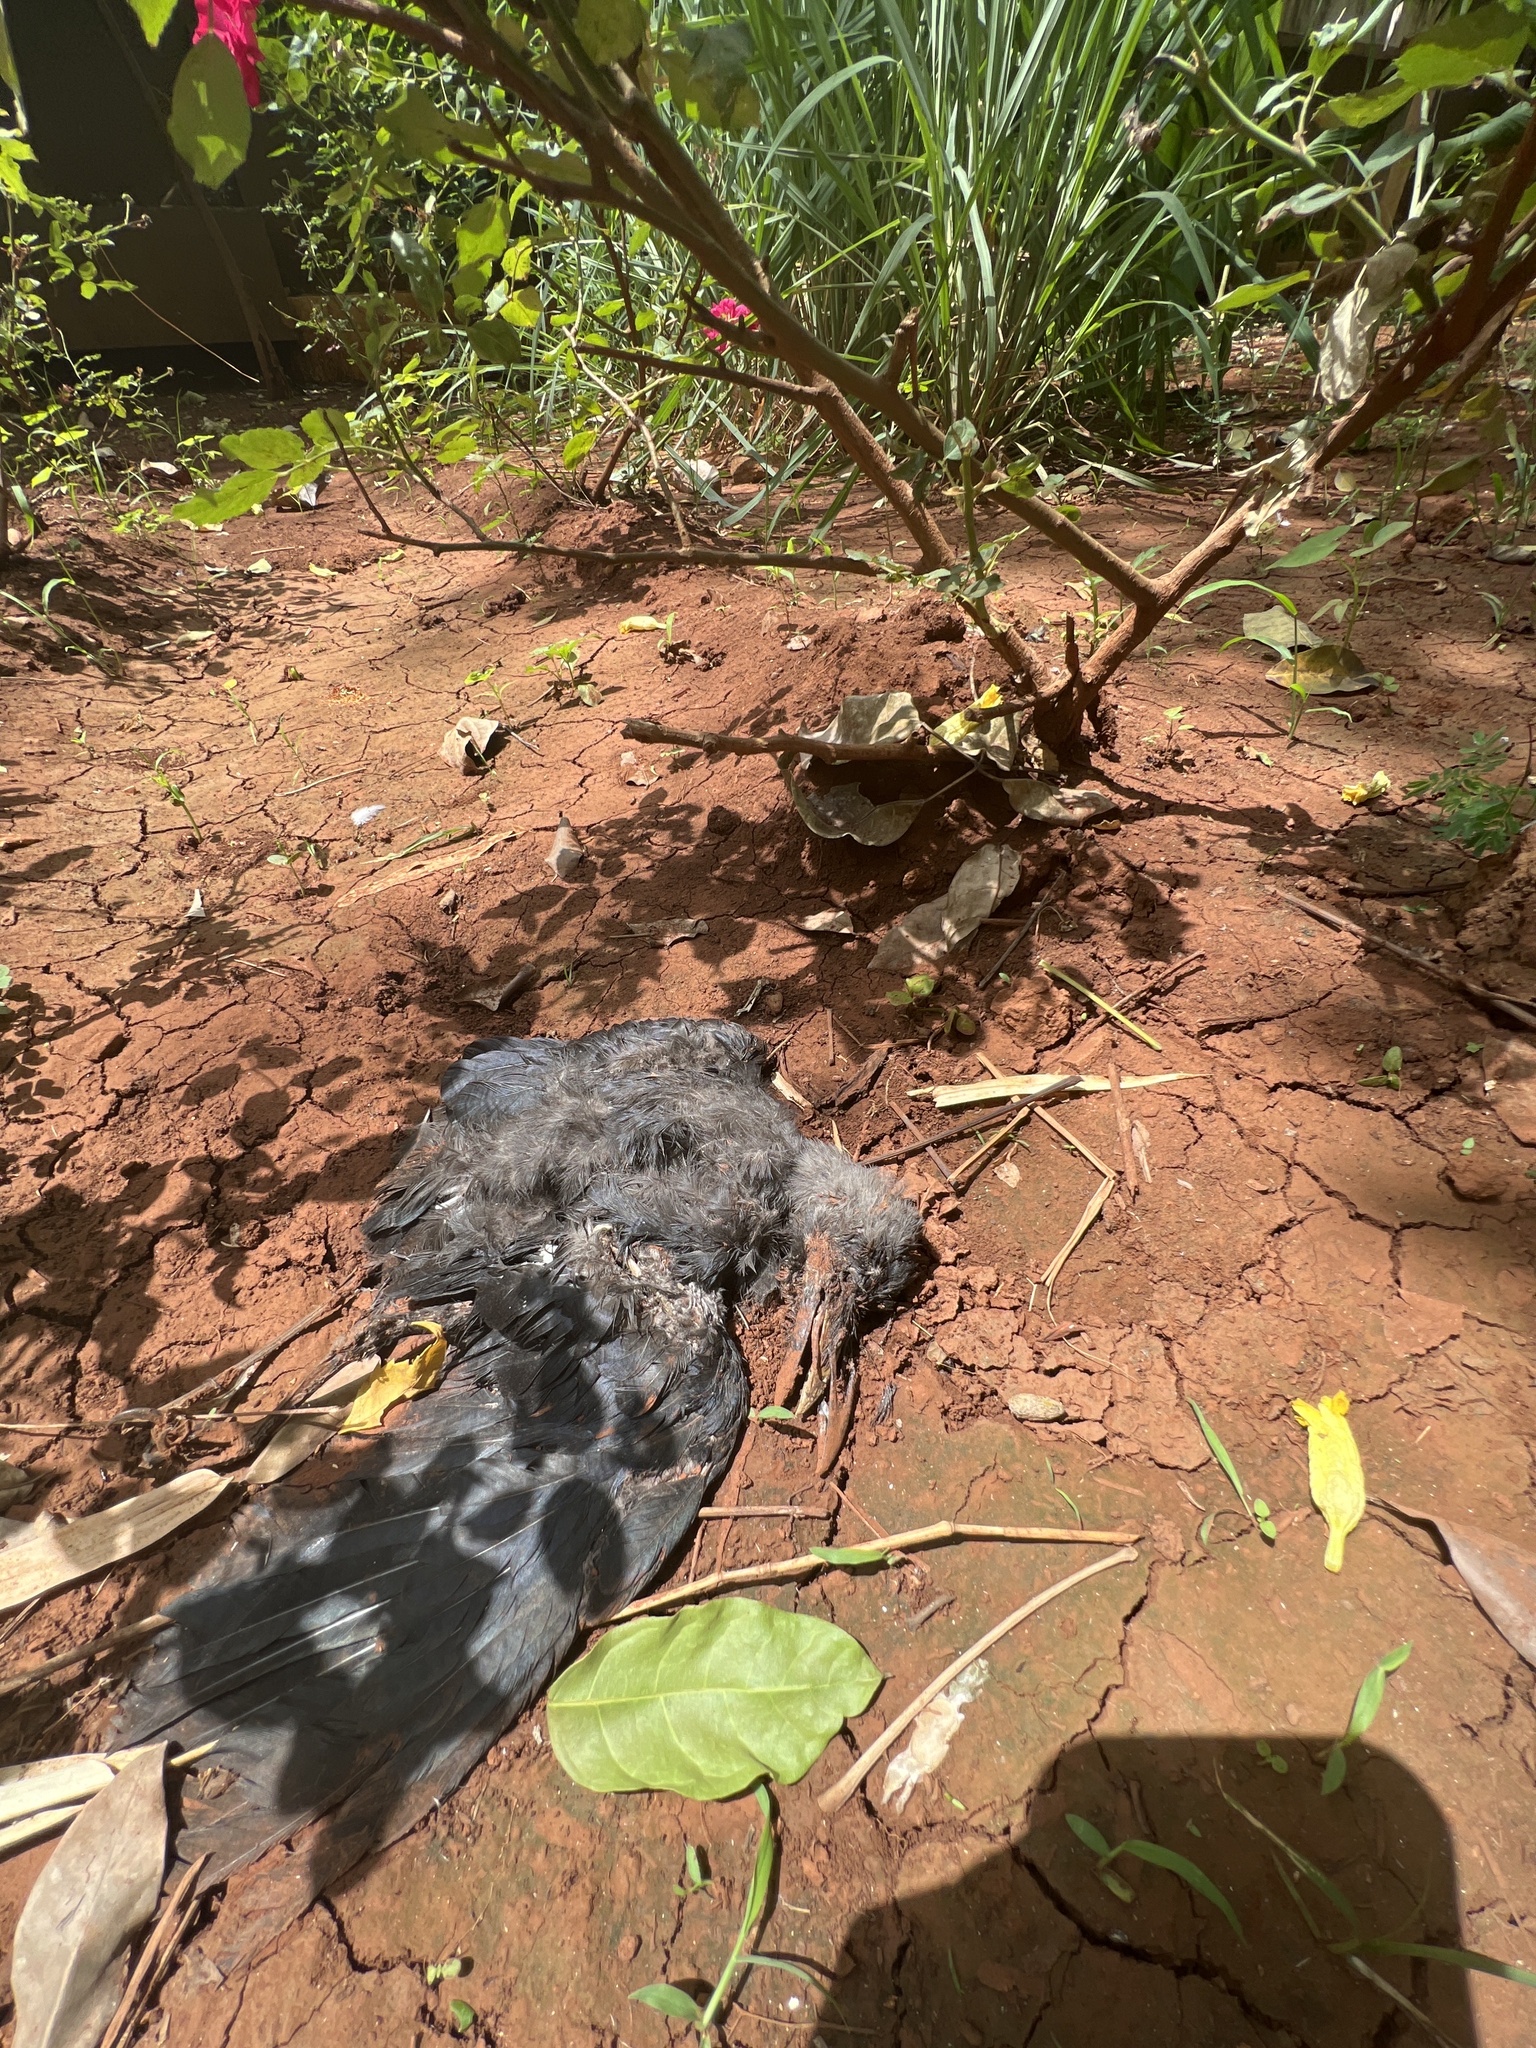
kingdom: Animalia
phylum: Chordata
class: Aves
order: Passeriformes
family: Corvidae
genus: Corvus
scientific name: Corvus splendens
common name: House crow
